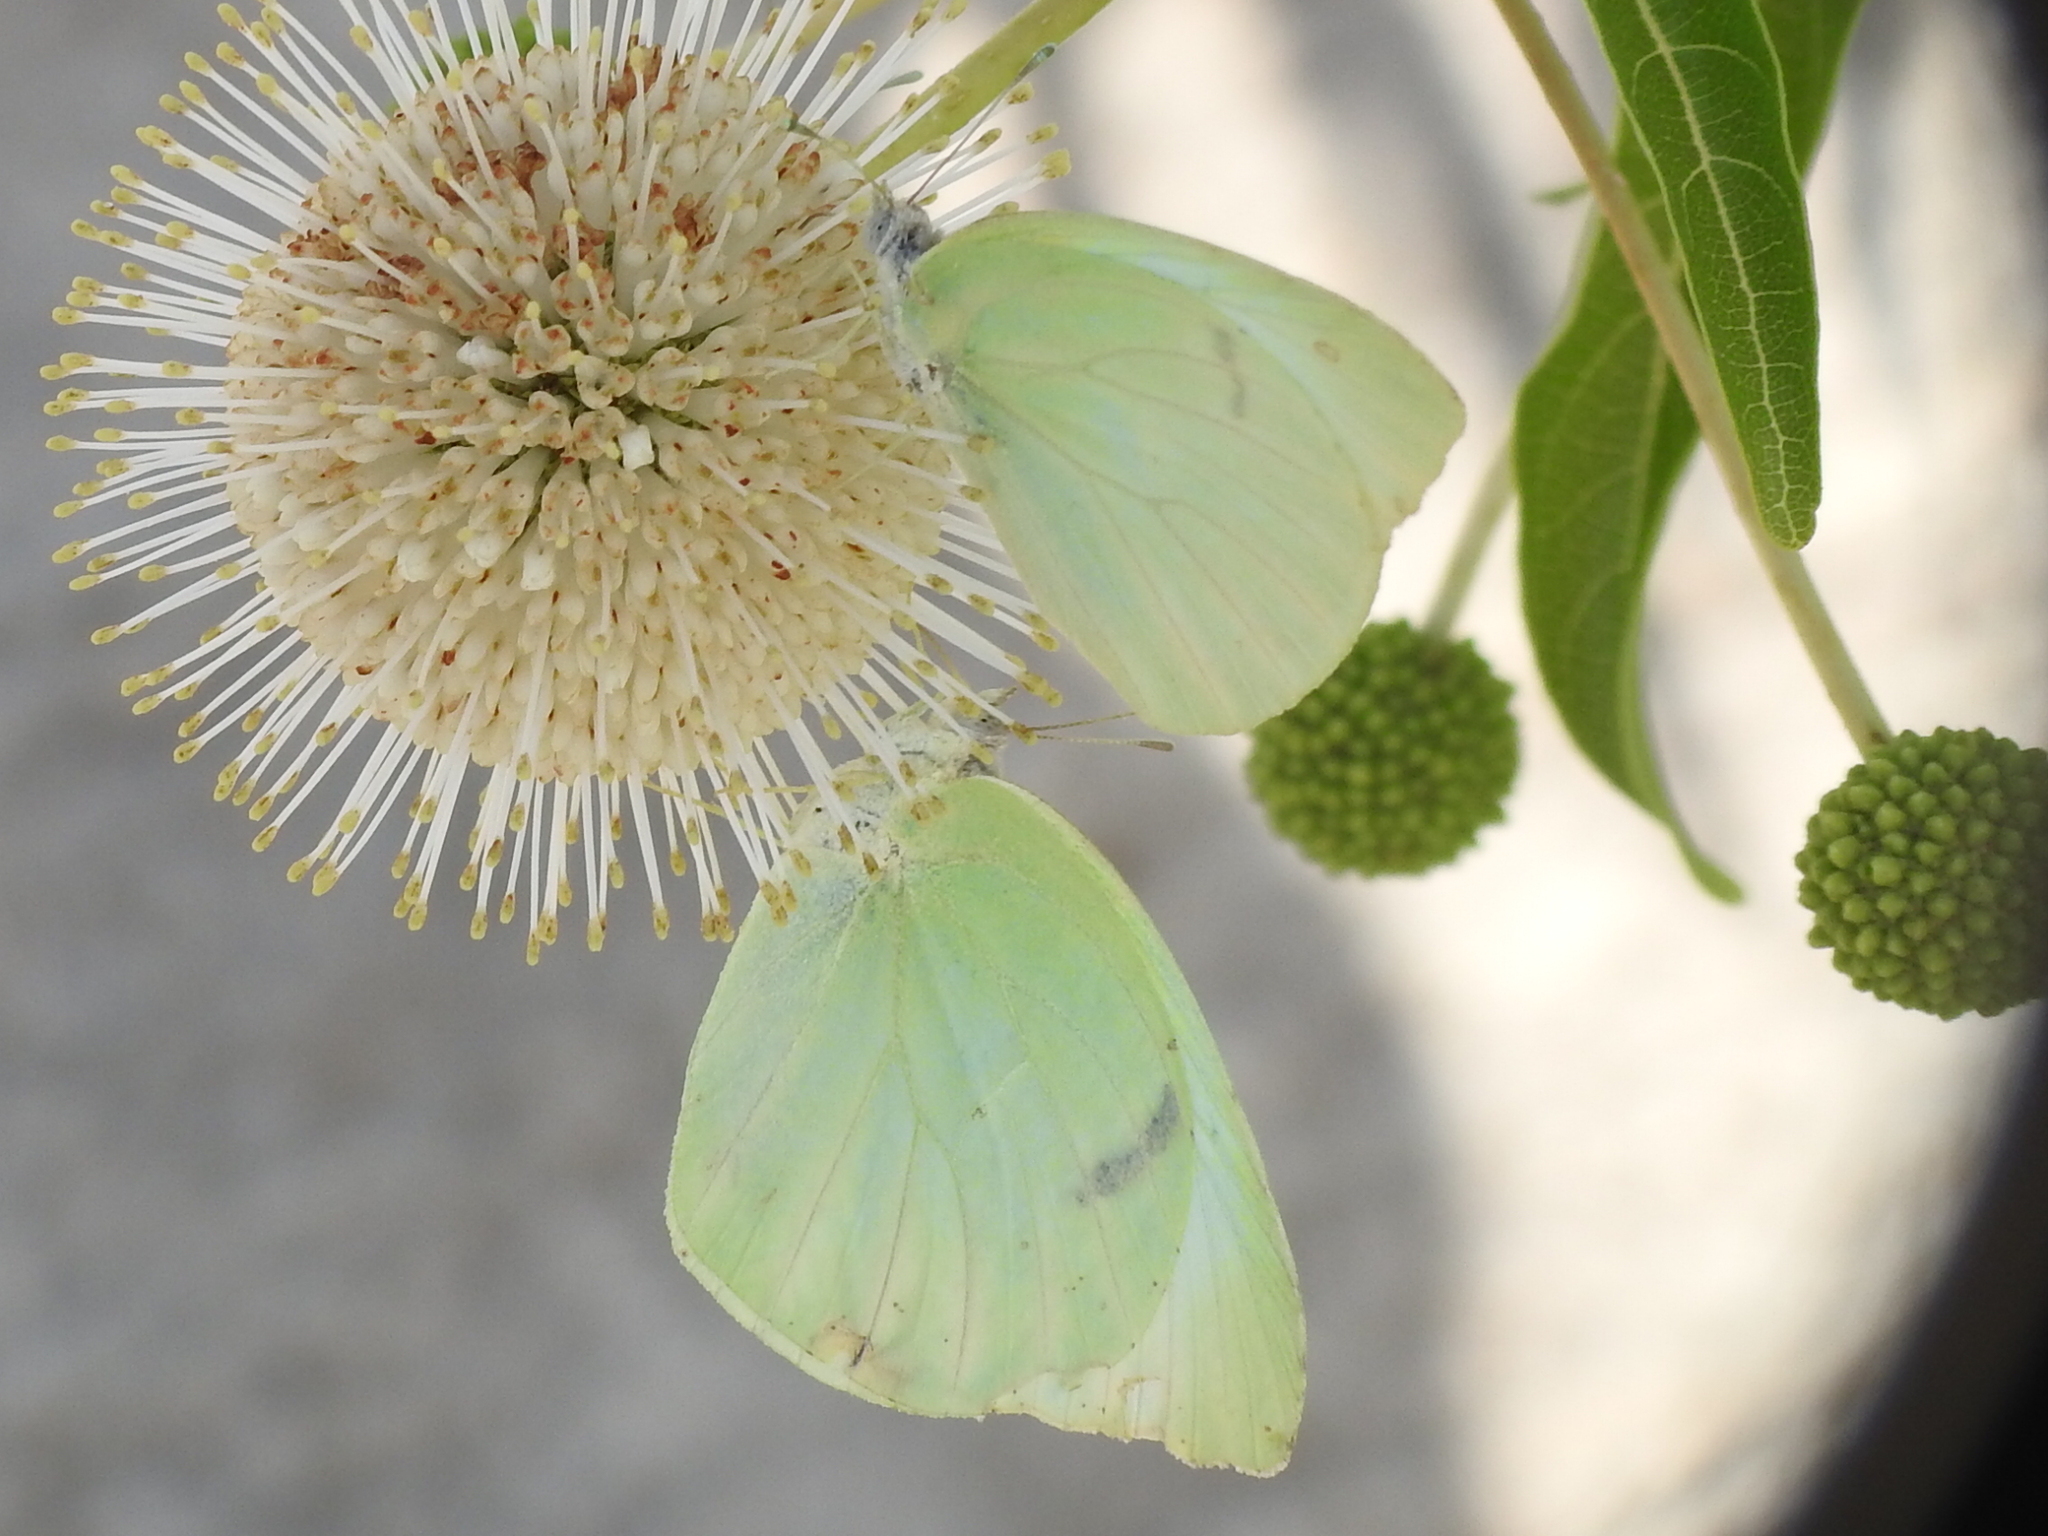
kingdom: Animalia
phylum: Arthropoda
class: Insecta
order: Lepidoptera
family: Pieridae
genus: Kricogonia
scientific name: Kricogonia lyside
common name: Guayacan sulphur,
